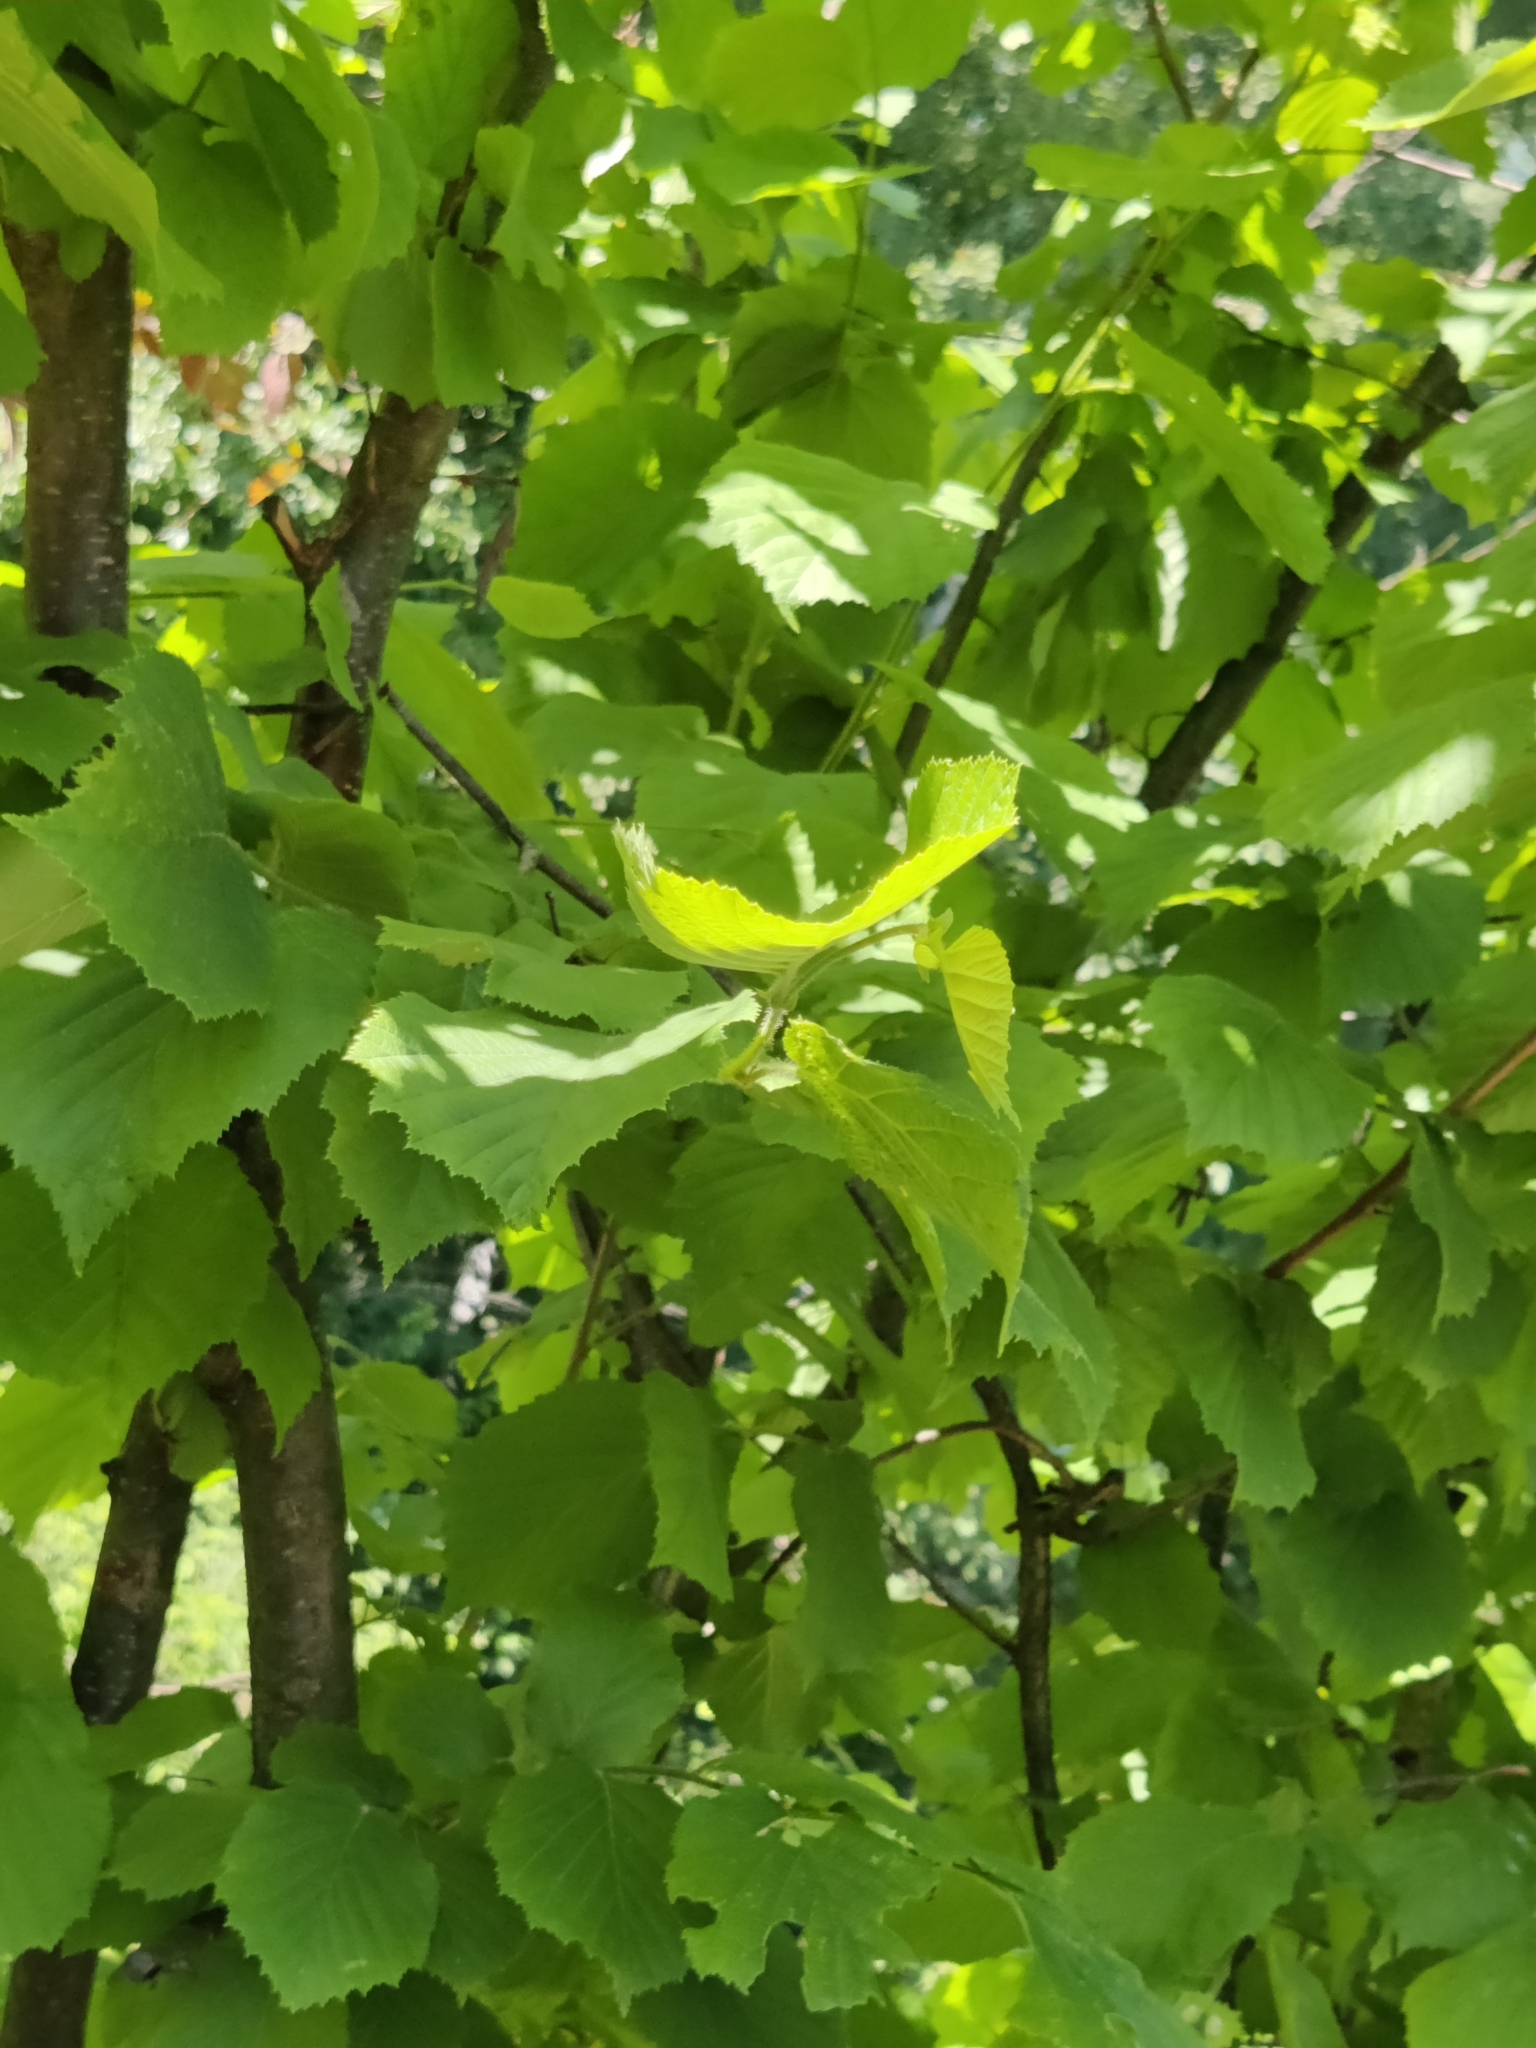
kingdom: Plantae
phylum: Tracheophyta
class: Magnoliopsida
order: Fagales
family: Betulaceae
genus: Corylus
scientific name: Corylus avellana
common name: European hazel
